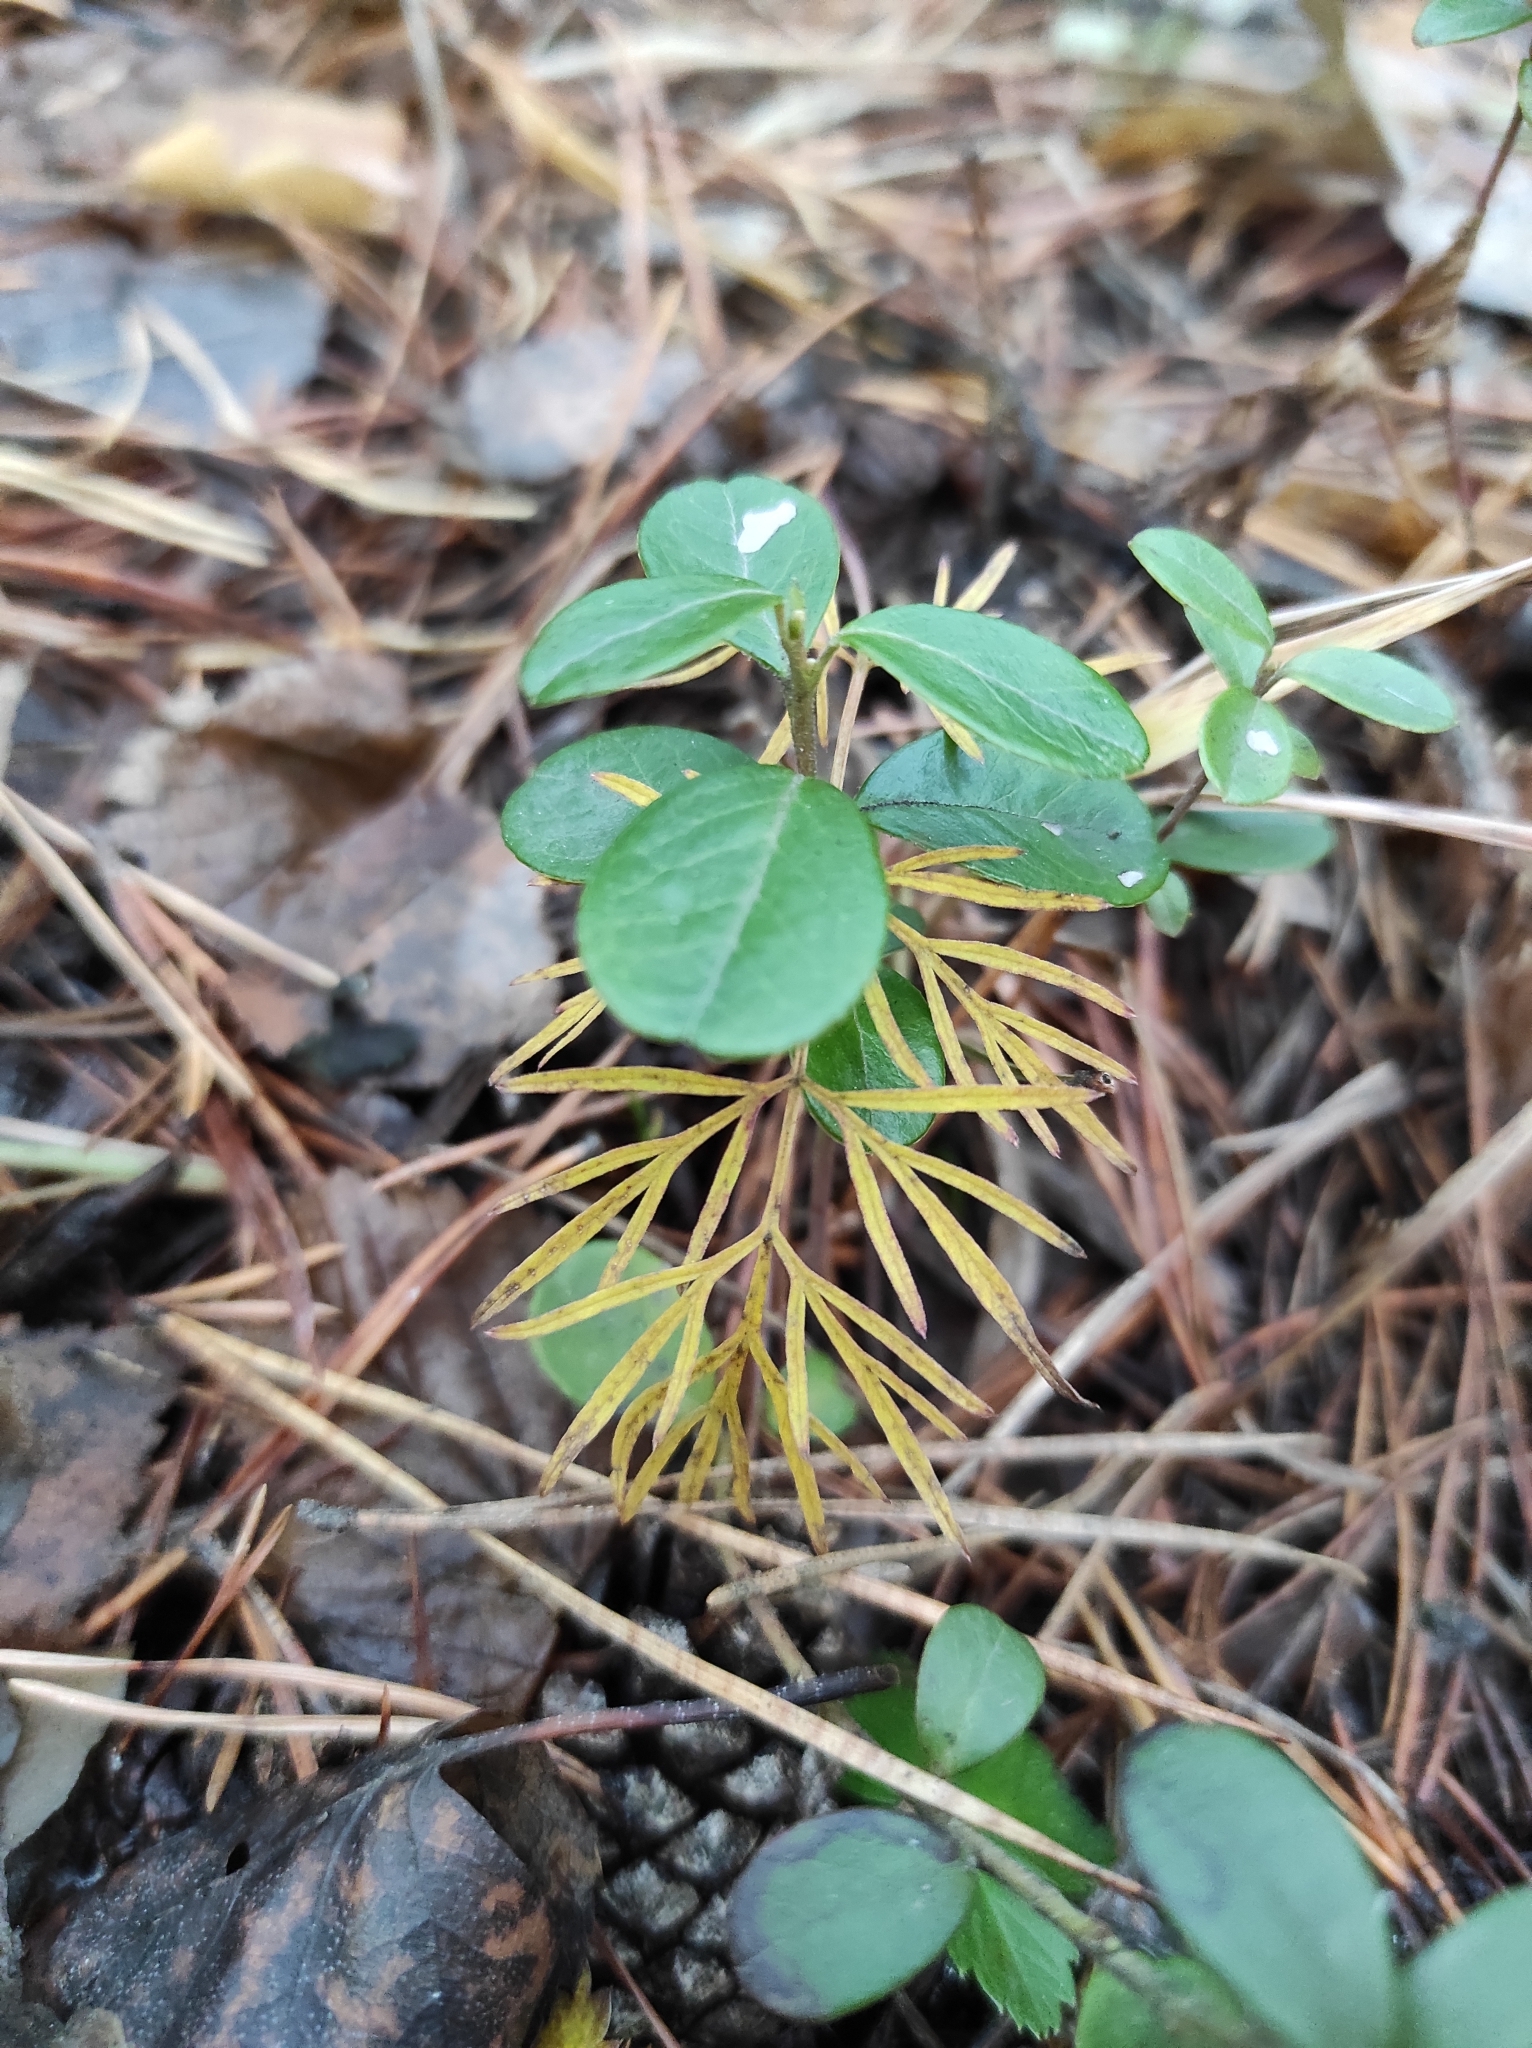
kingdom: Plantae
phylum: Tracheophyta
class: Magnoliopsida
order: Ericales
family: Ericaceae
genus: Vaccinium
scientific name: Vaccinium vitis-idaea
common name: Cowberry
